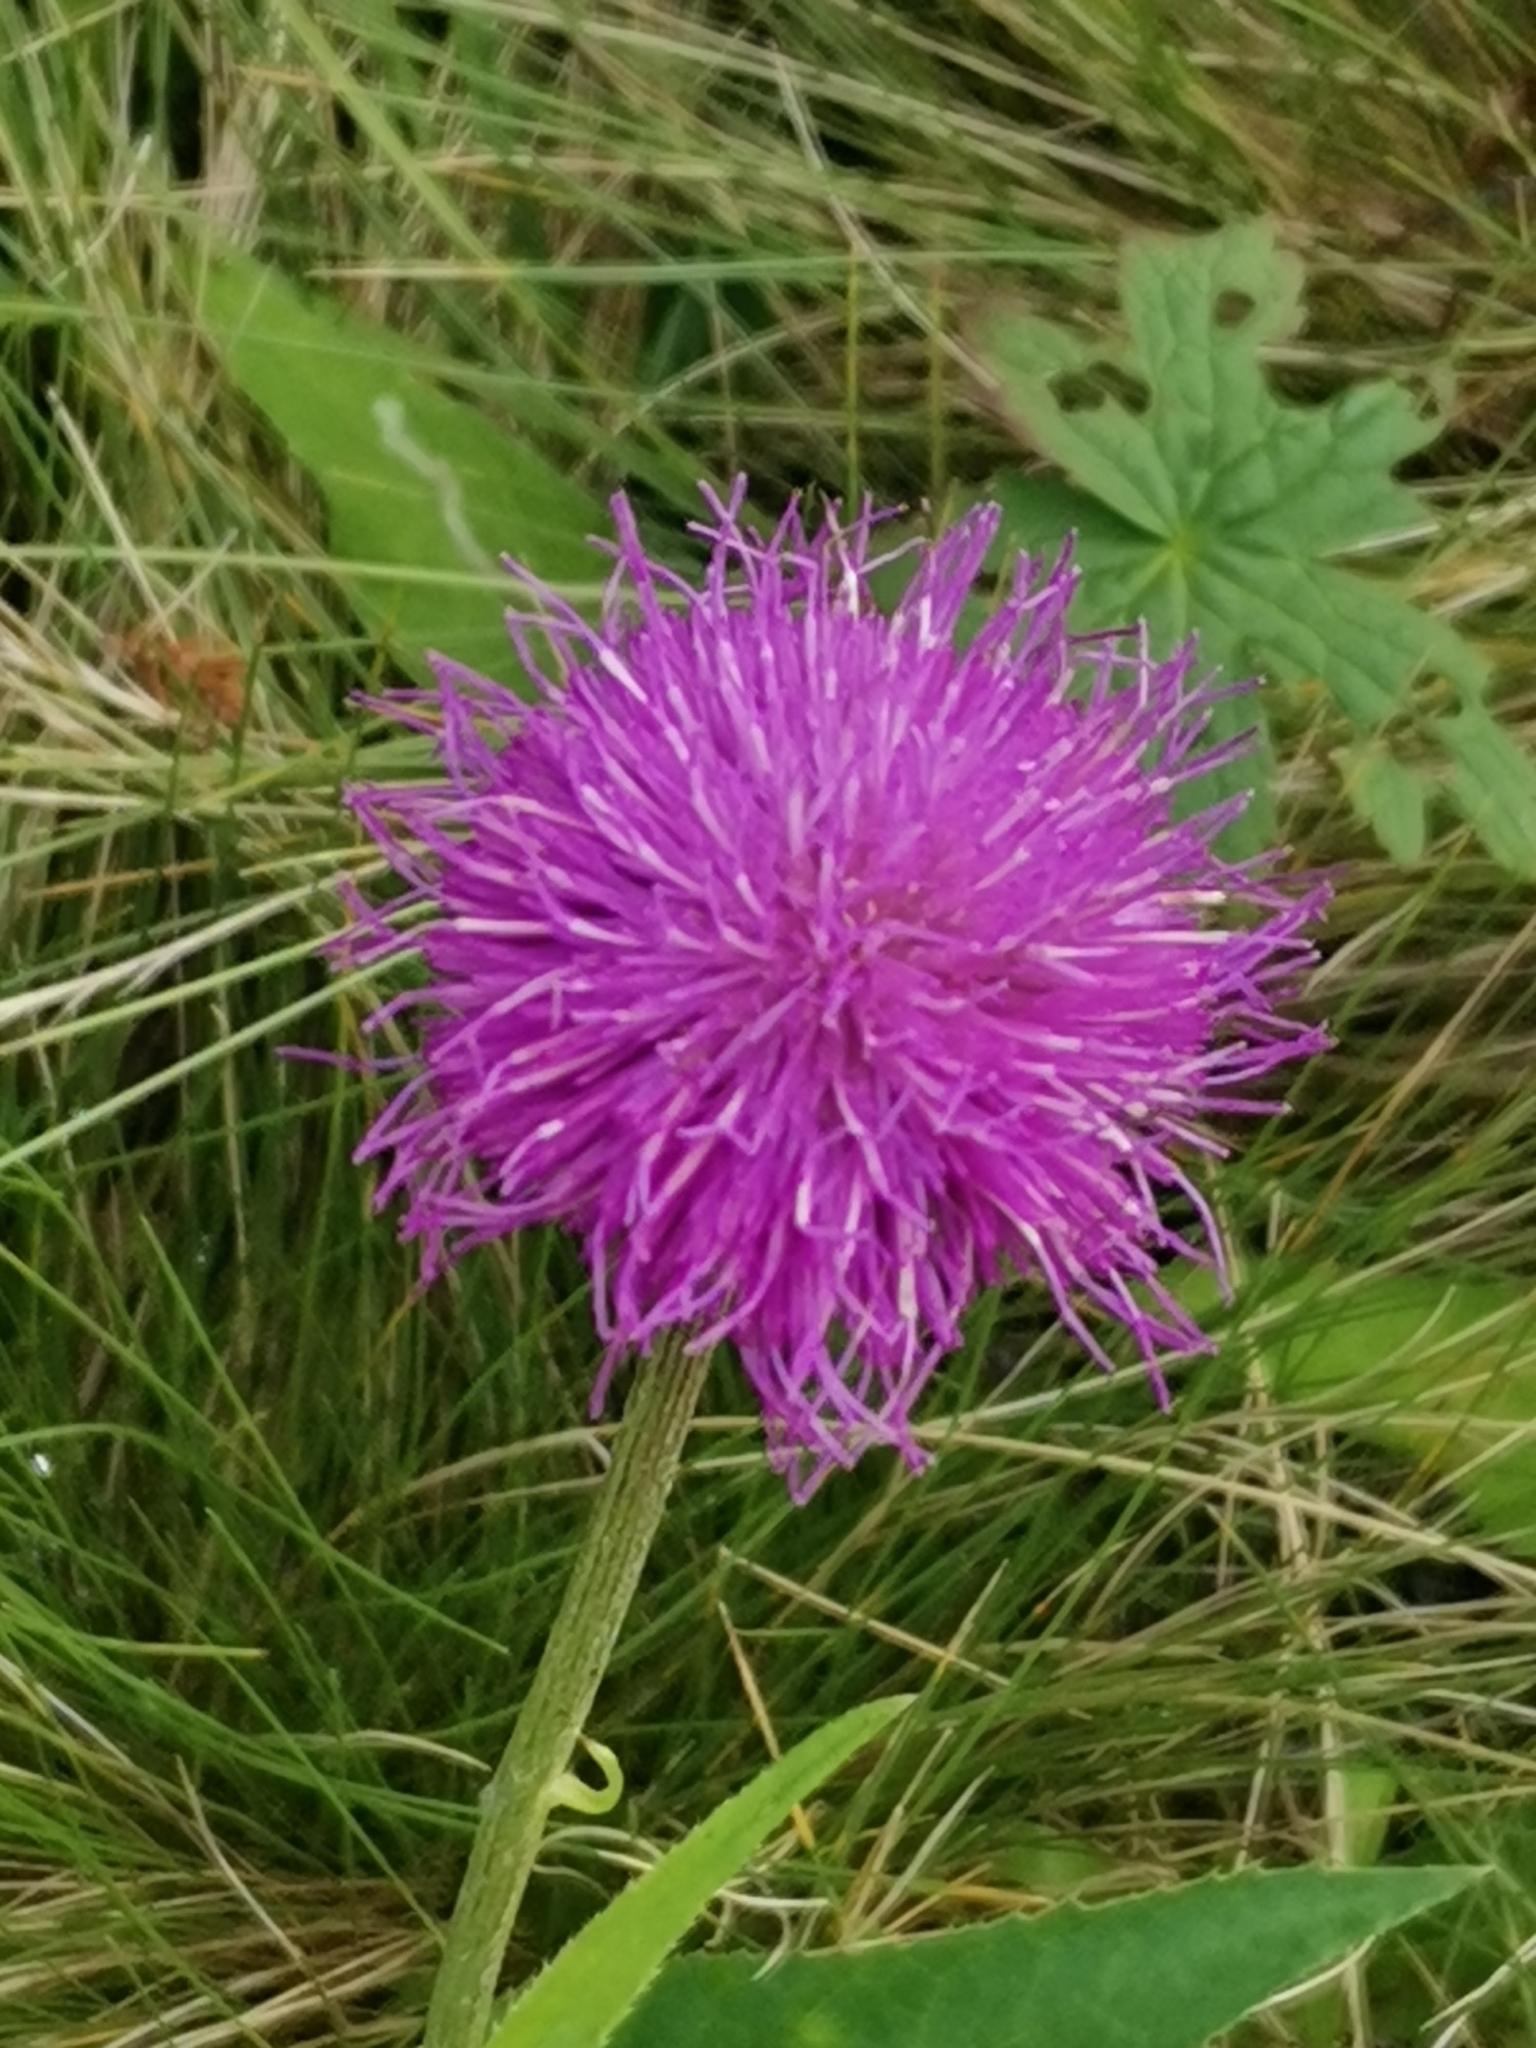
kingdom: Plantae
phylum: Tracheophyta
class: Magnoliopsida
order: Asterales
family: Asteraceae
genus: Cirsium
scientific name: Cirsium heterophyllum
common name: Melancholy thistle
